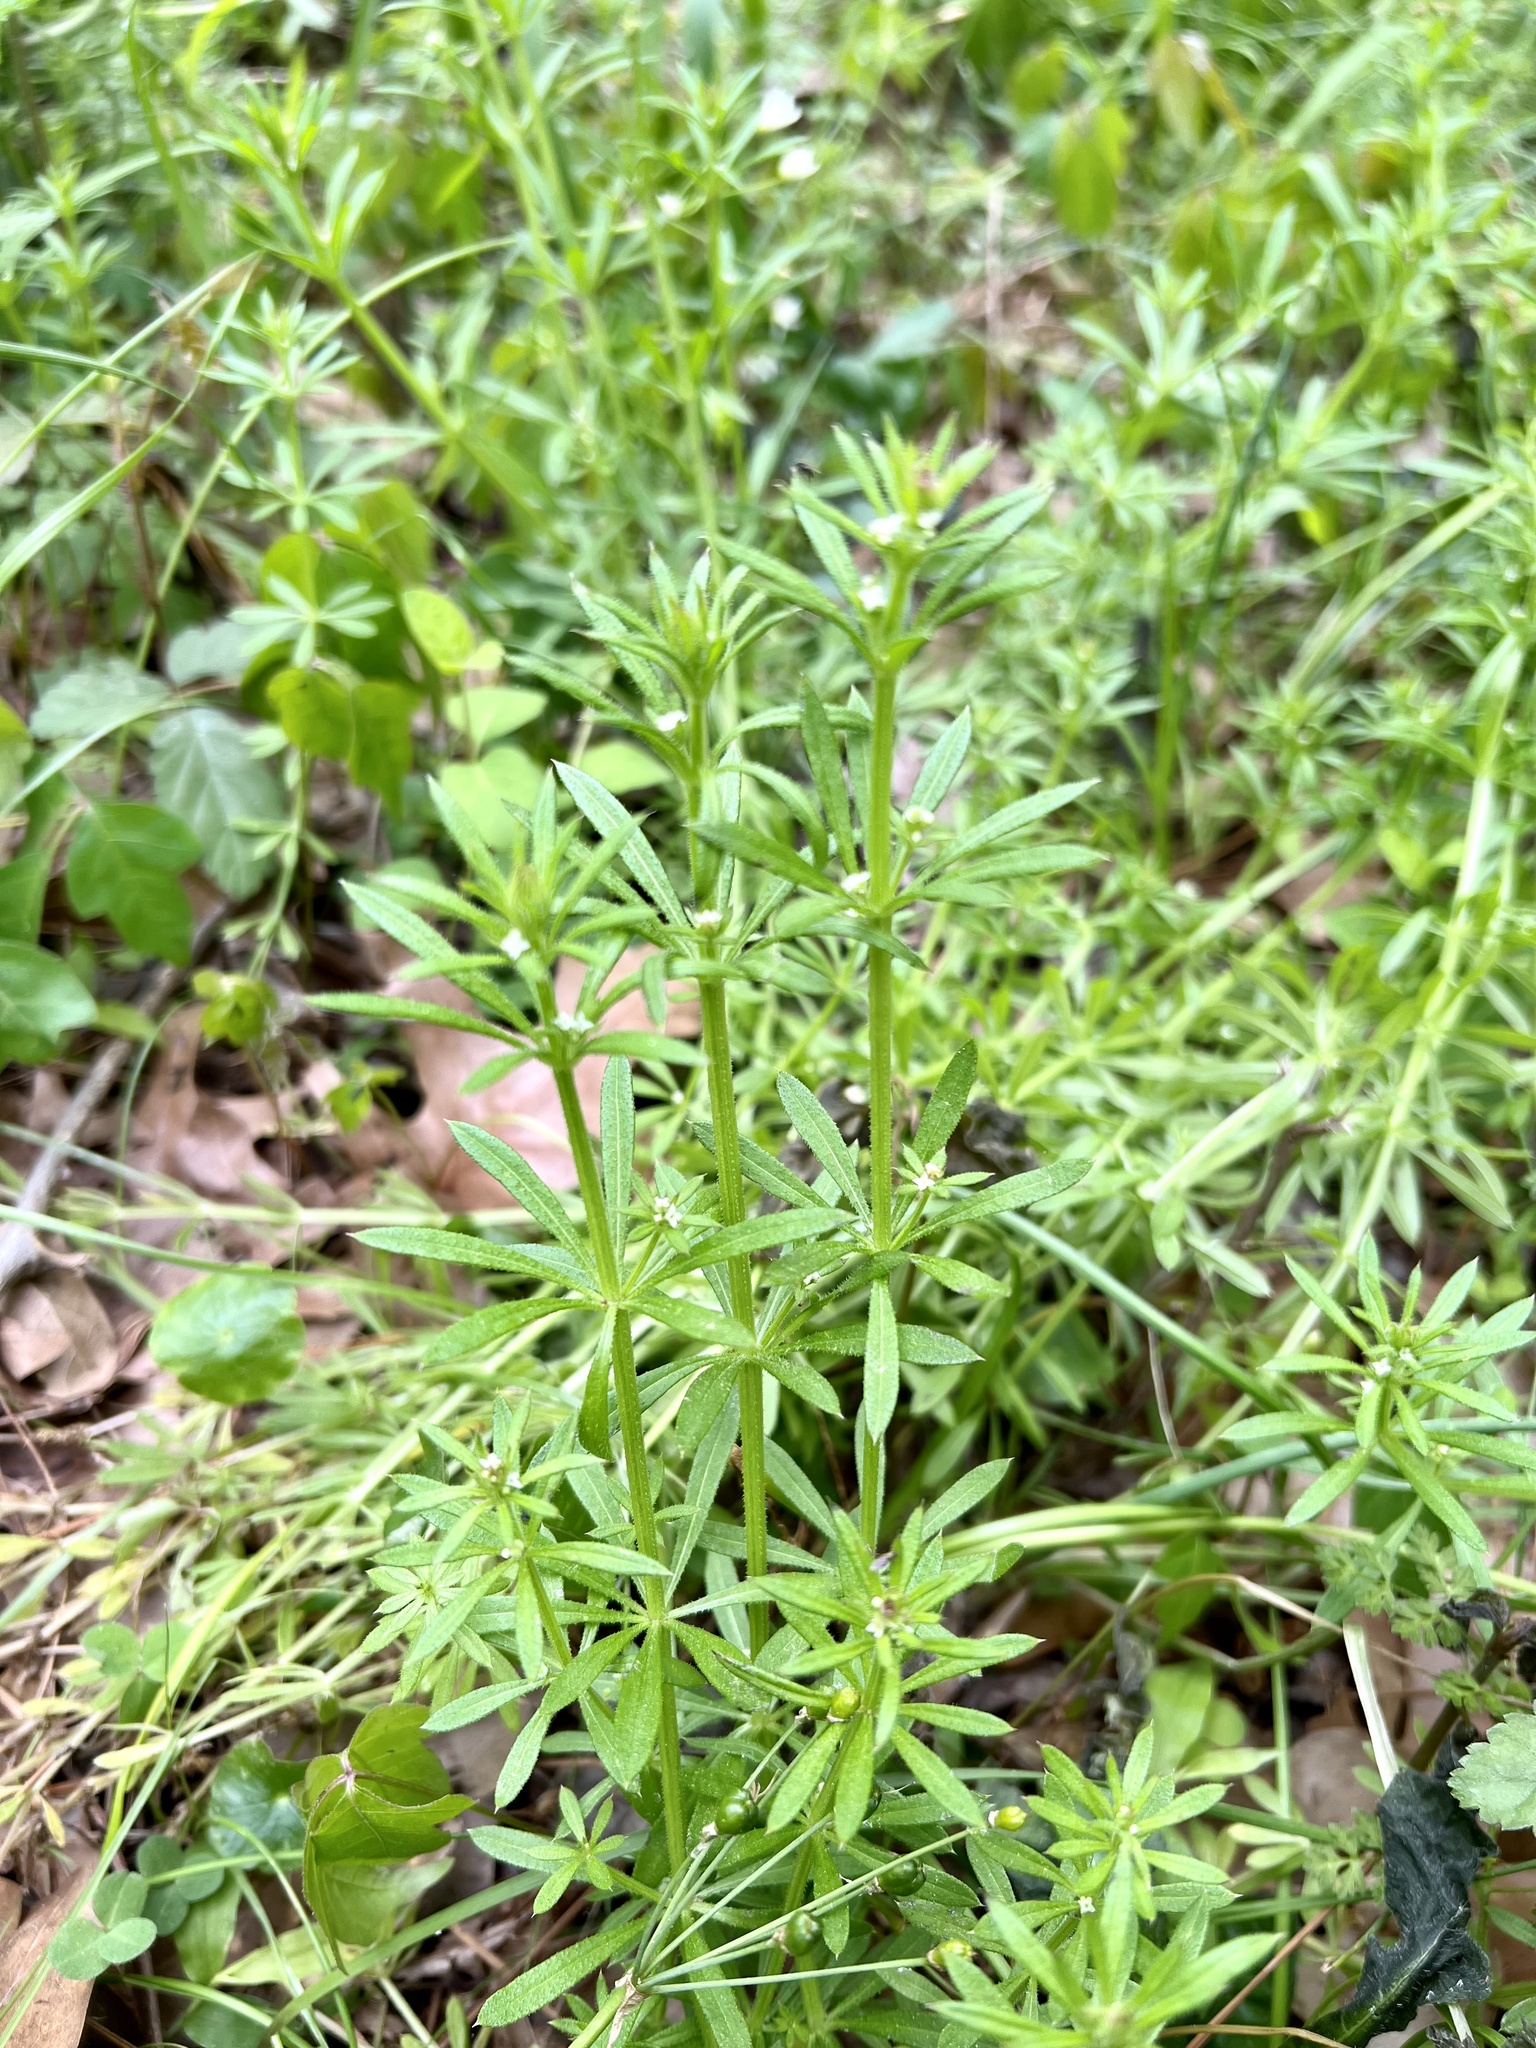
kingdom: Plantae
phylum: Tracheophyta
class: Magnoliopsida
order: Gentianales
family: Rubiaceae
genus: Galium
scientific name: Galium aparine
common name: Cleavers
